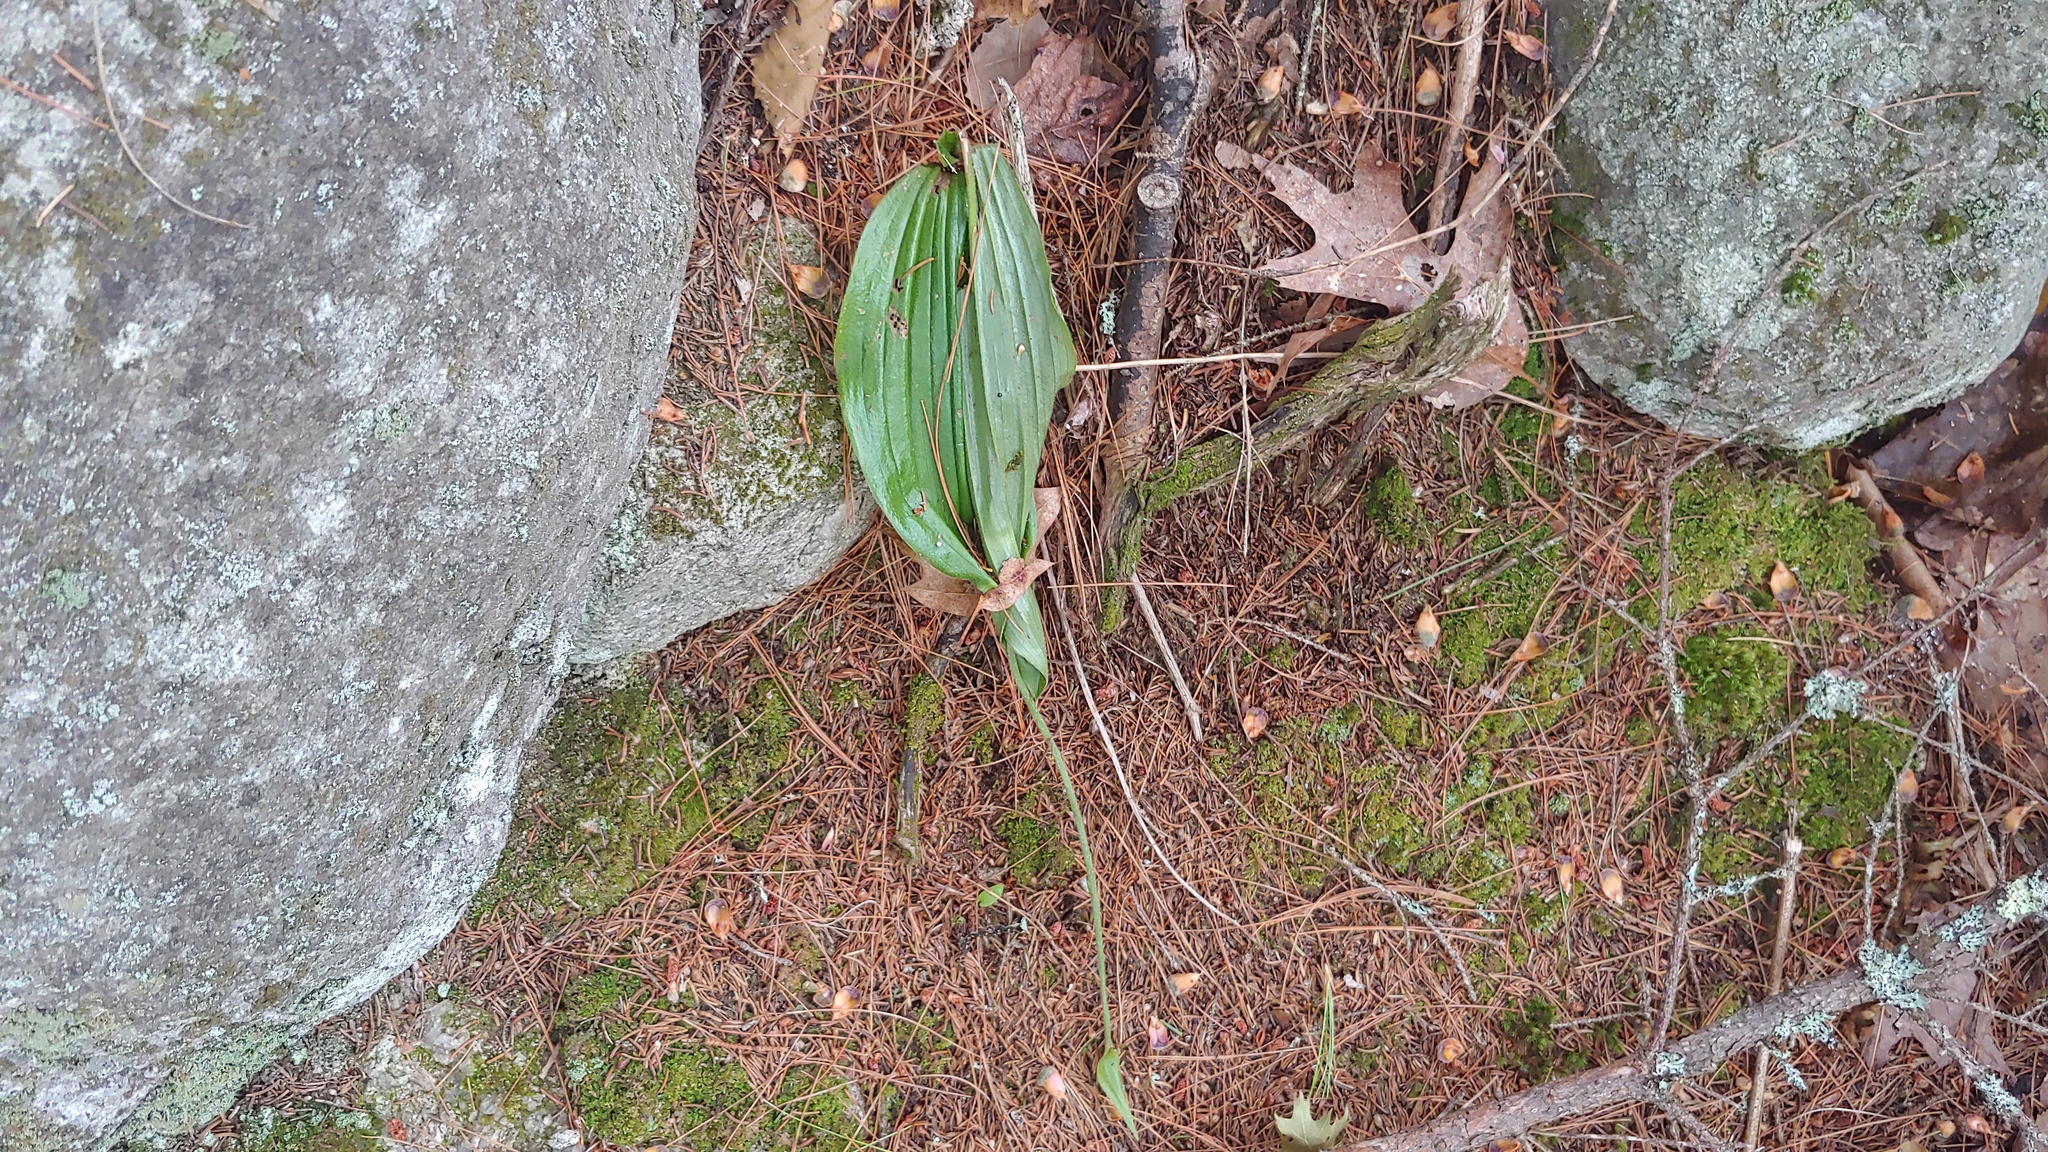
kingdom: Plantae
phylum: Tracheophyta
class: Liliopsida
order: Asparagales
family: Orchidaceae
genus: Cypripedium
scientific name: Cypripedium acaule
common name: Pink lady's-slipper
